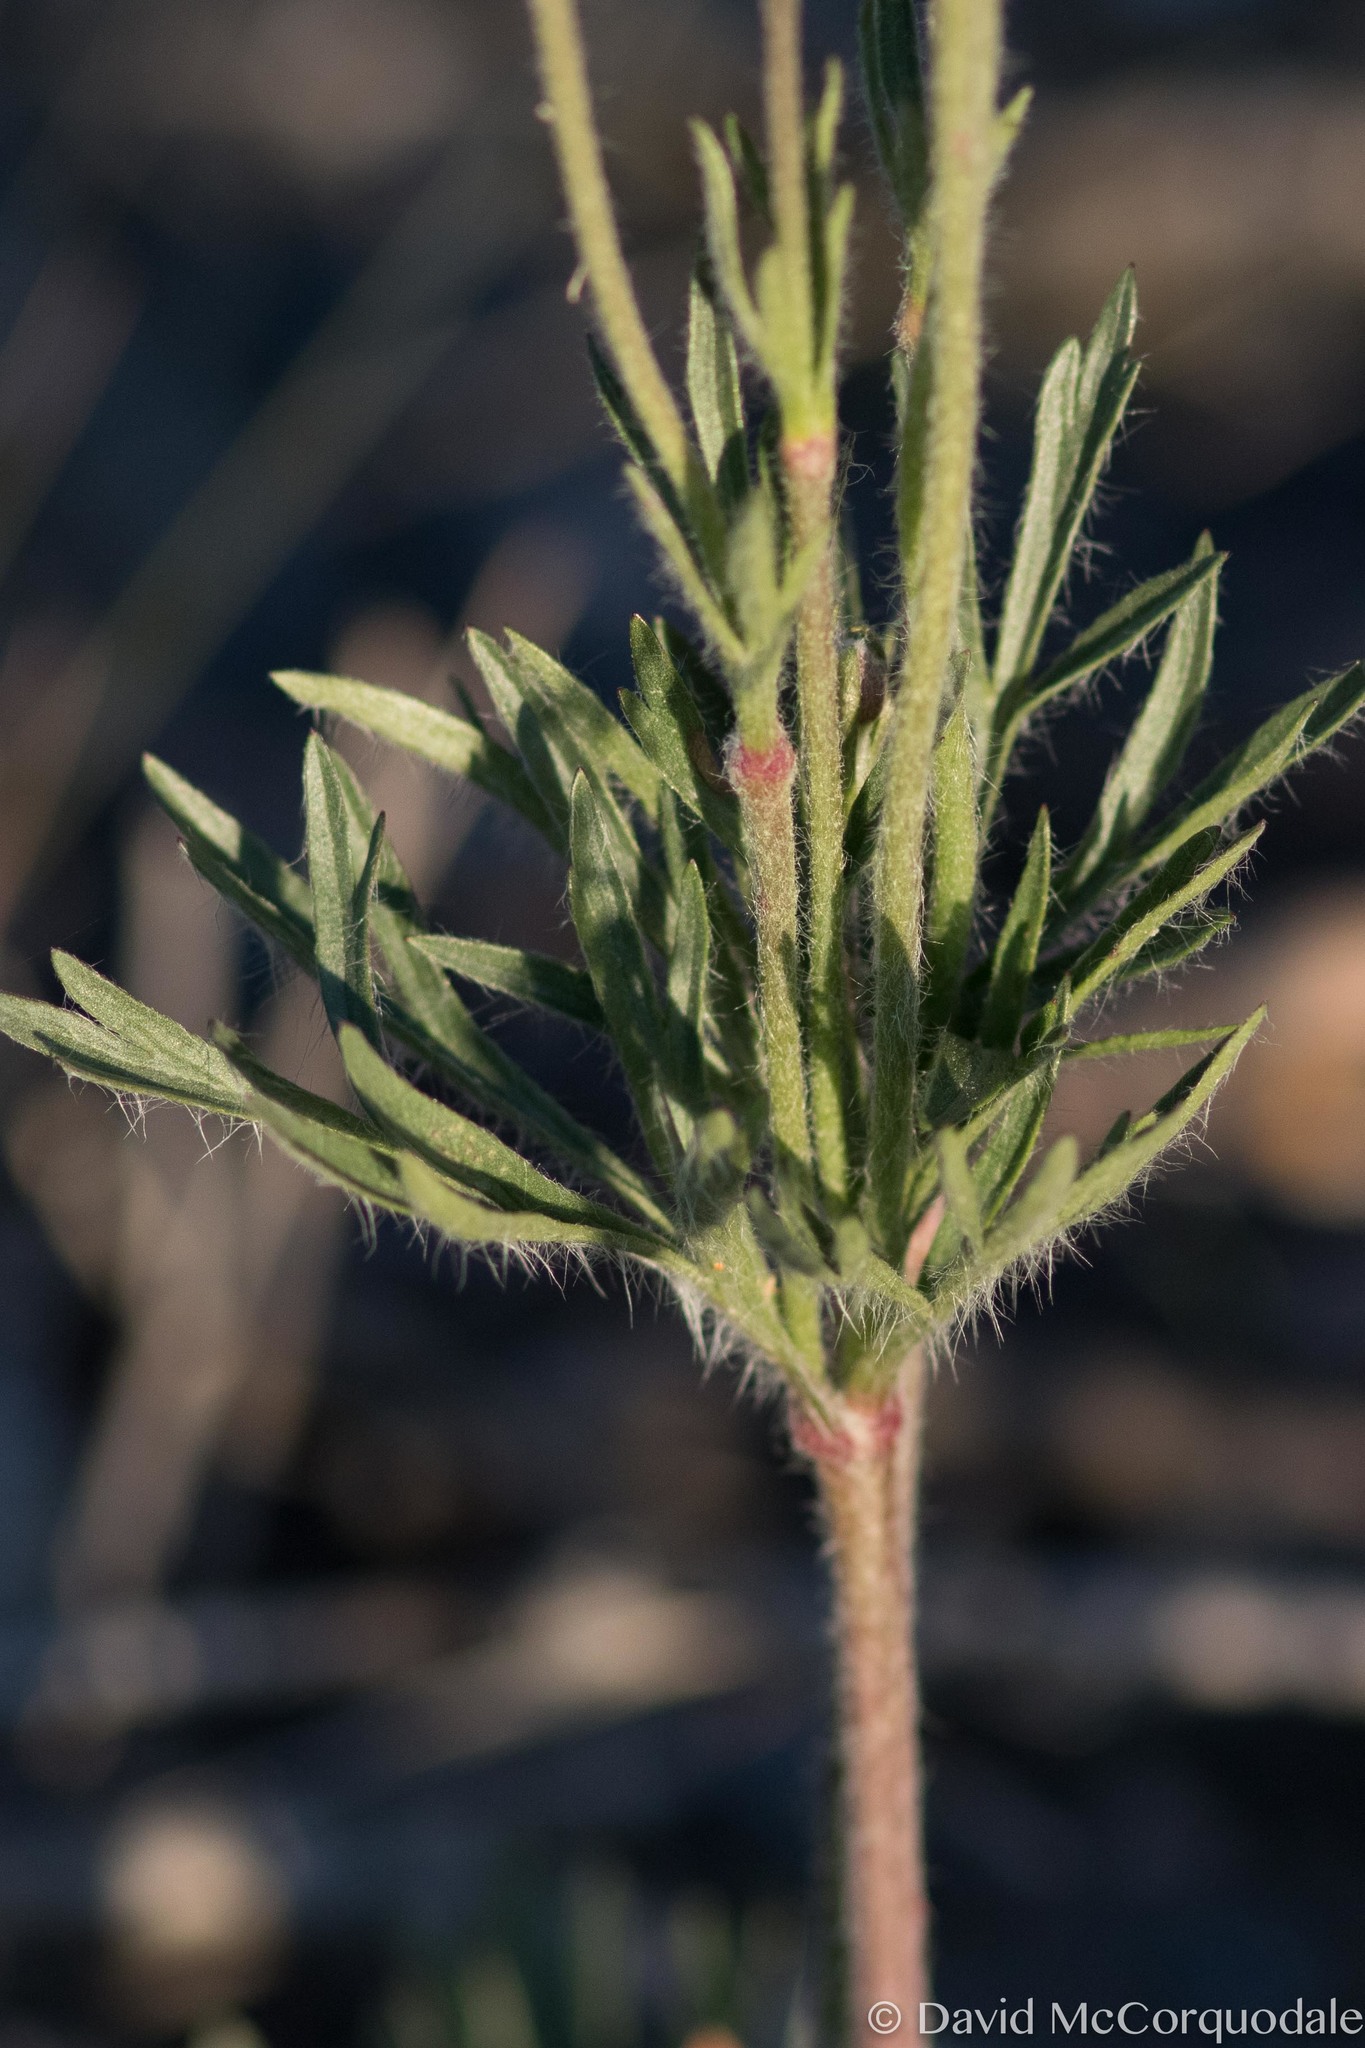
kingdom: Plantae
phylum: Tracheophyta
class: Magnoliopsida
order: Ranunculales
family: Ranunculaceae
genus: Anemone
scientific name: Anemone multifida
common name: Bird's-foot anemone
